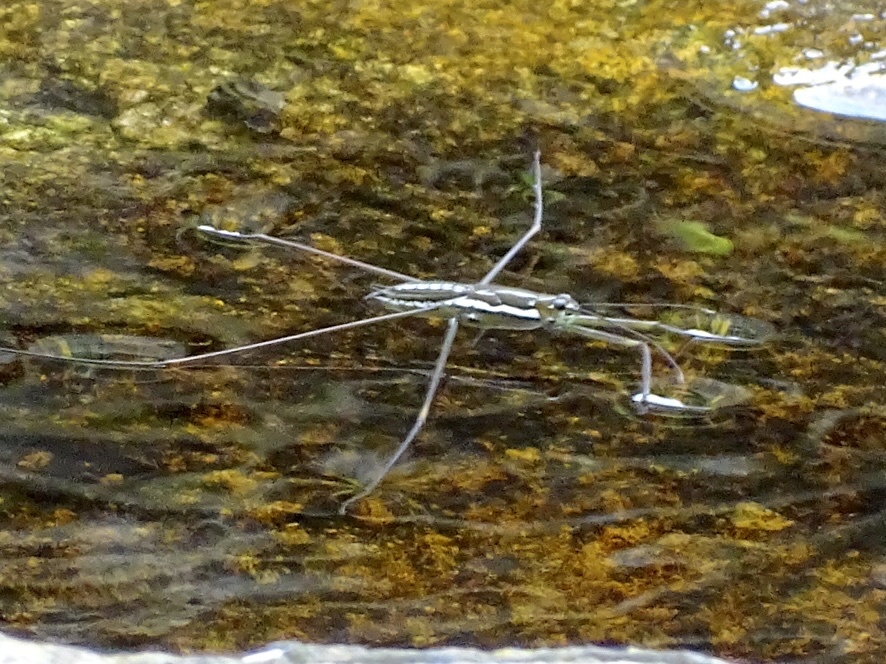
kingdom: Animalia
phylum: Arthropoda
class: Insecta
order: Hemiptera
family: Gerridae
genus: Ptilomera
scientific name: Ptilomera tigrina
